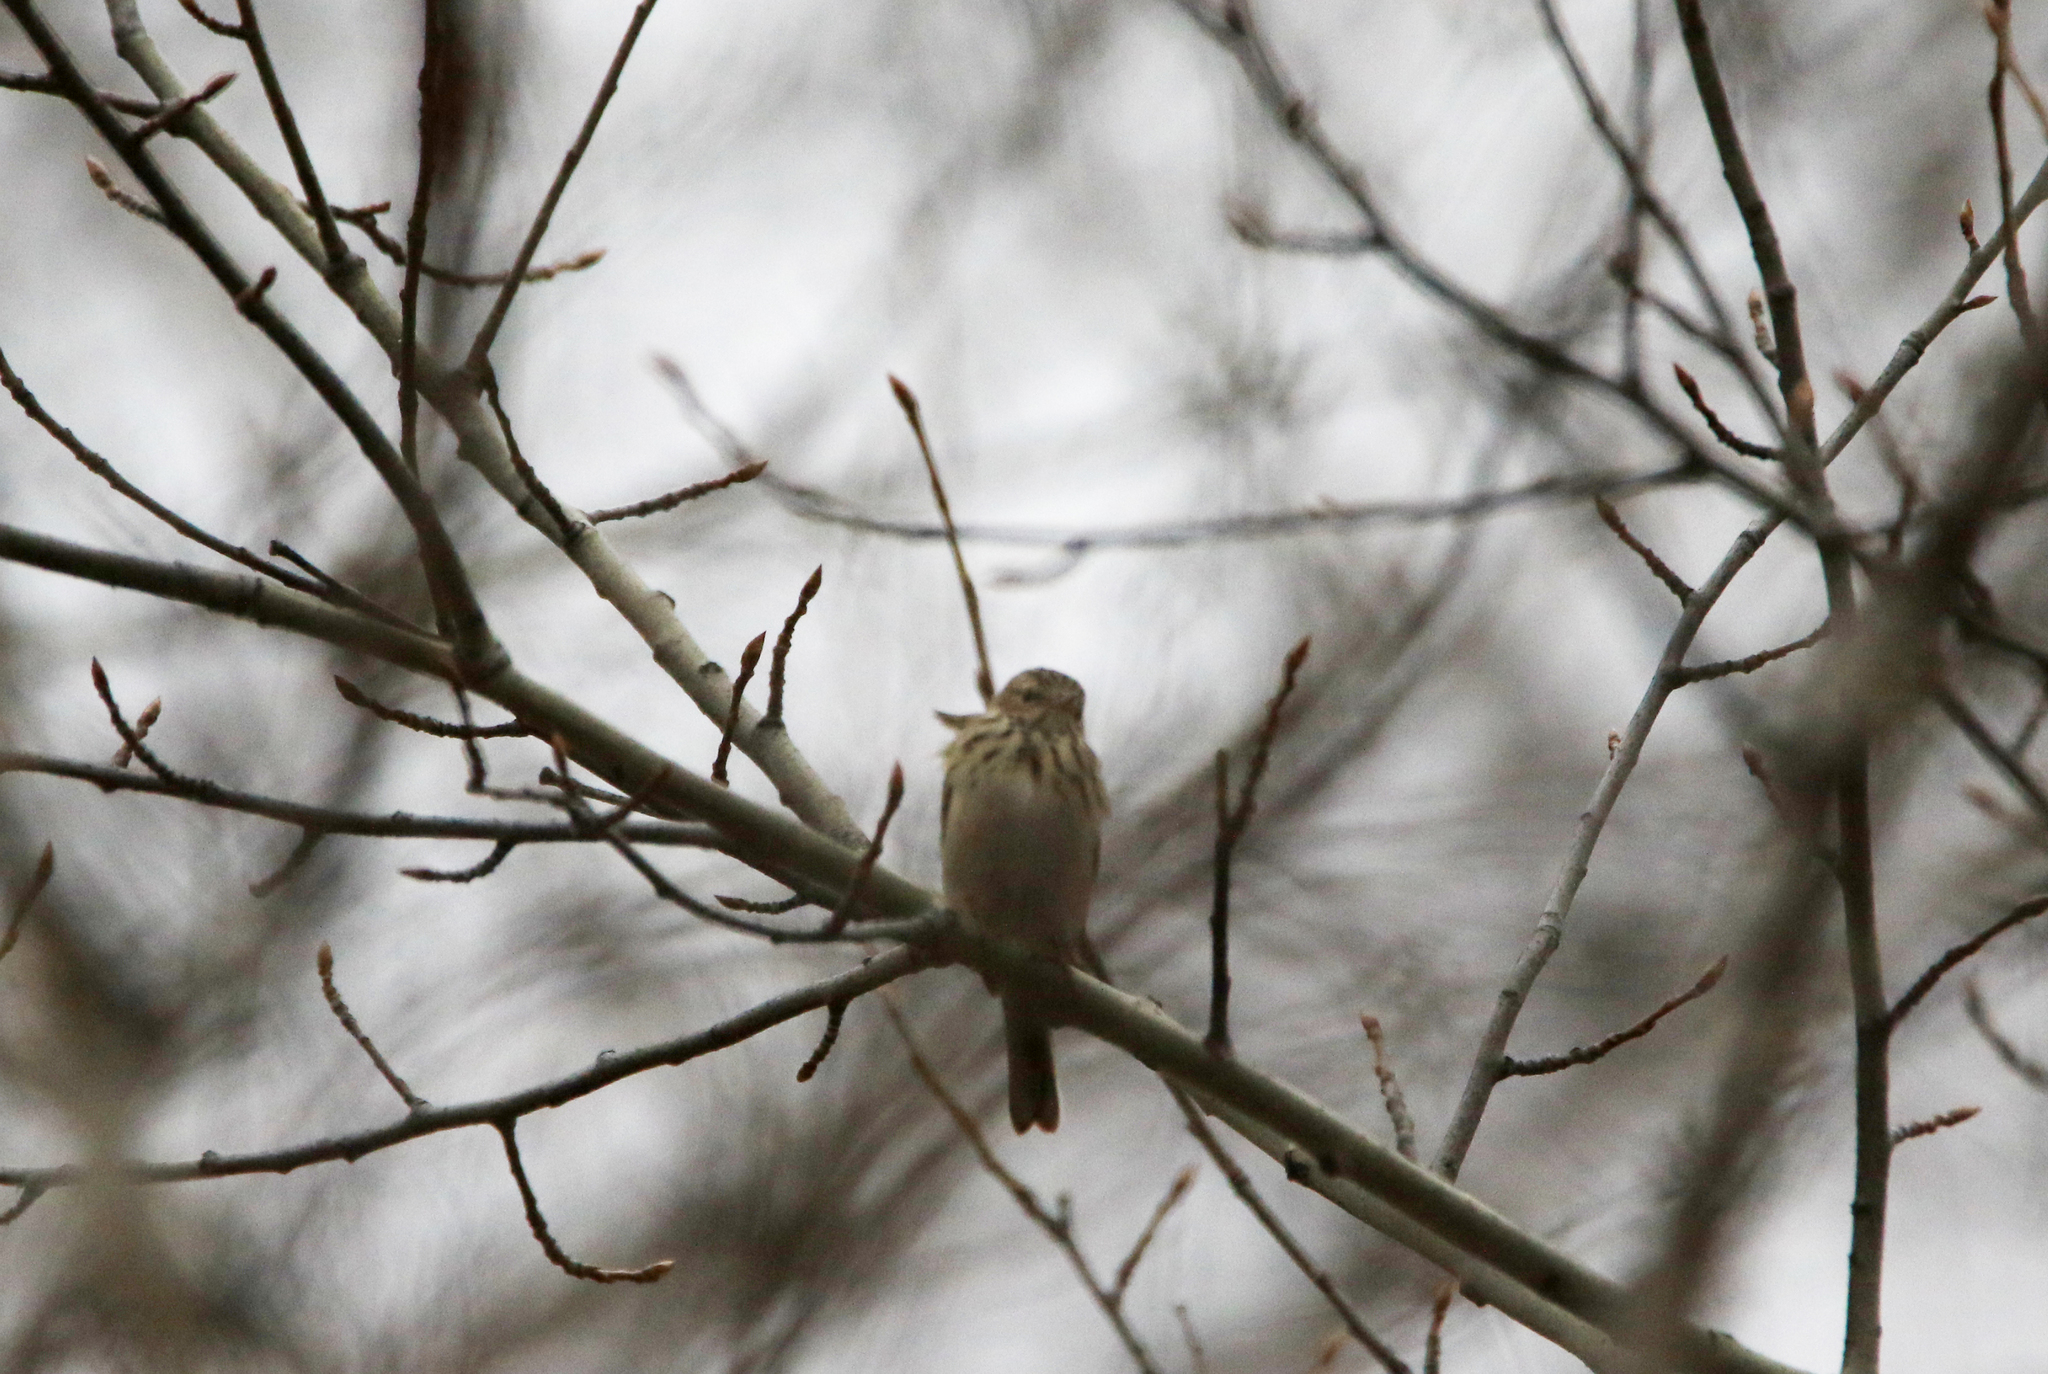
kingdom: Animalia
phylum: Chordata
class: Aves
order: Passeriformes
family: Motacillidae
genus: Anthus
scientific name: Anthus trivialis
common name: Tree pipit
